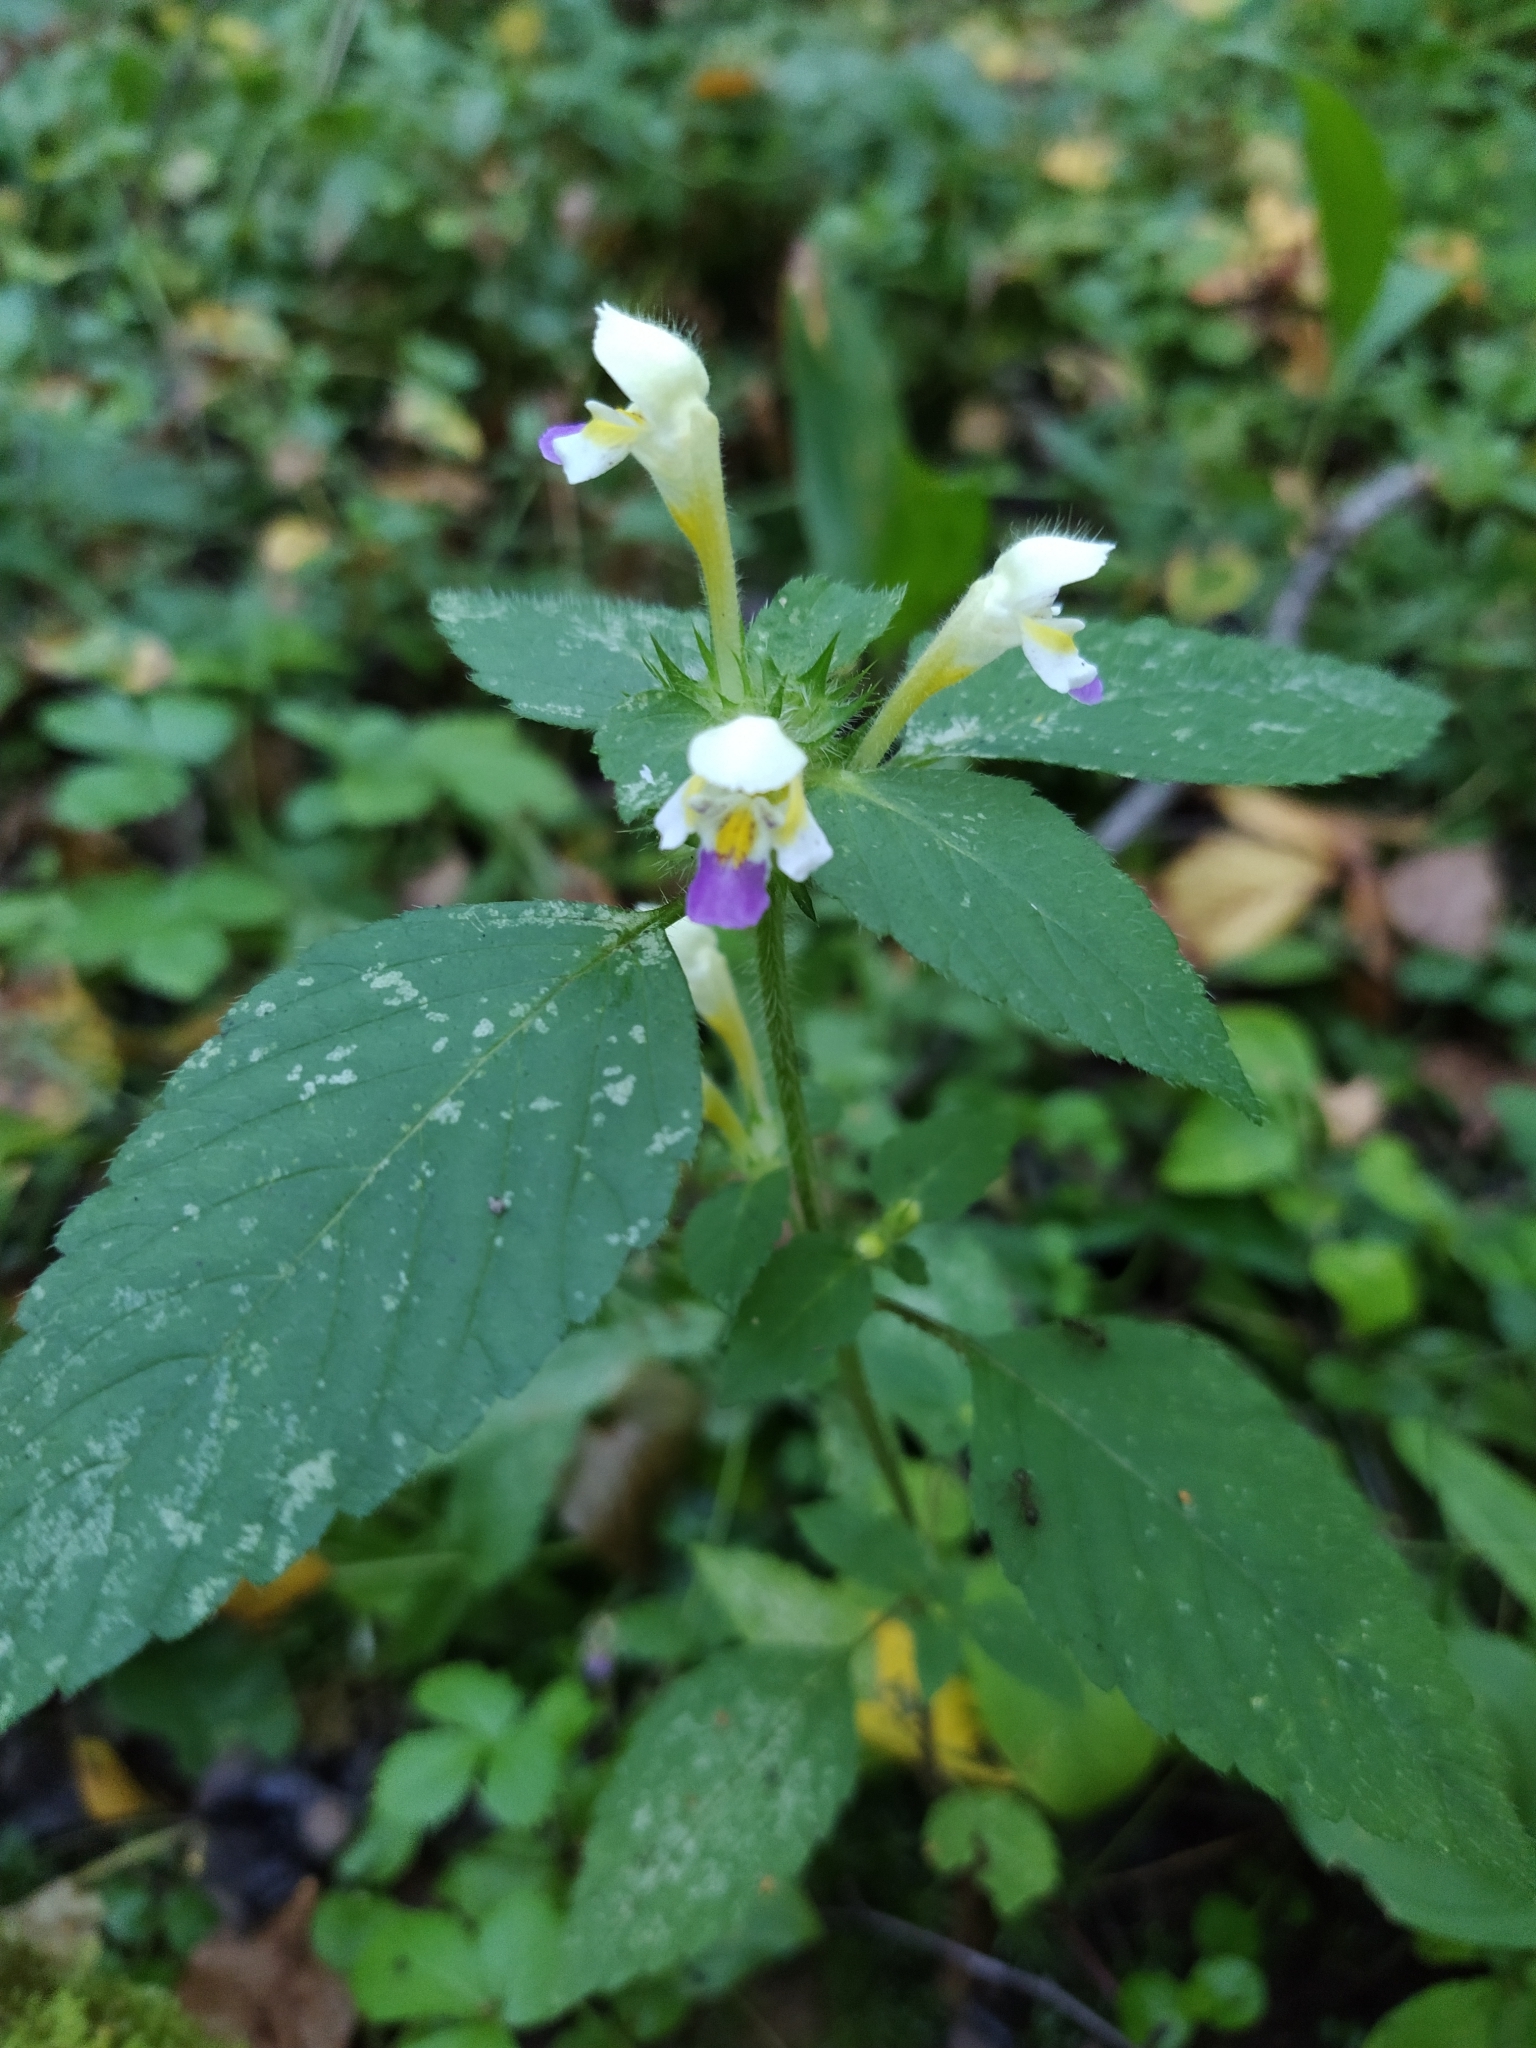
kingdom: Plantae
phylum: Tracheophyta
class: Magnoliopsida
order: Lamiales
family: Lamiaceae
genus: Galeopsis
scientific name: Galeopsis speciosa
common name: Large-flowered hemp-nettle
